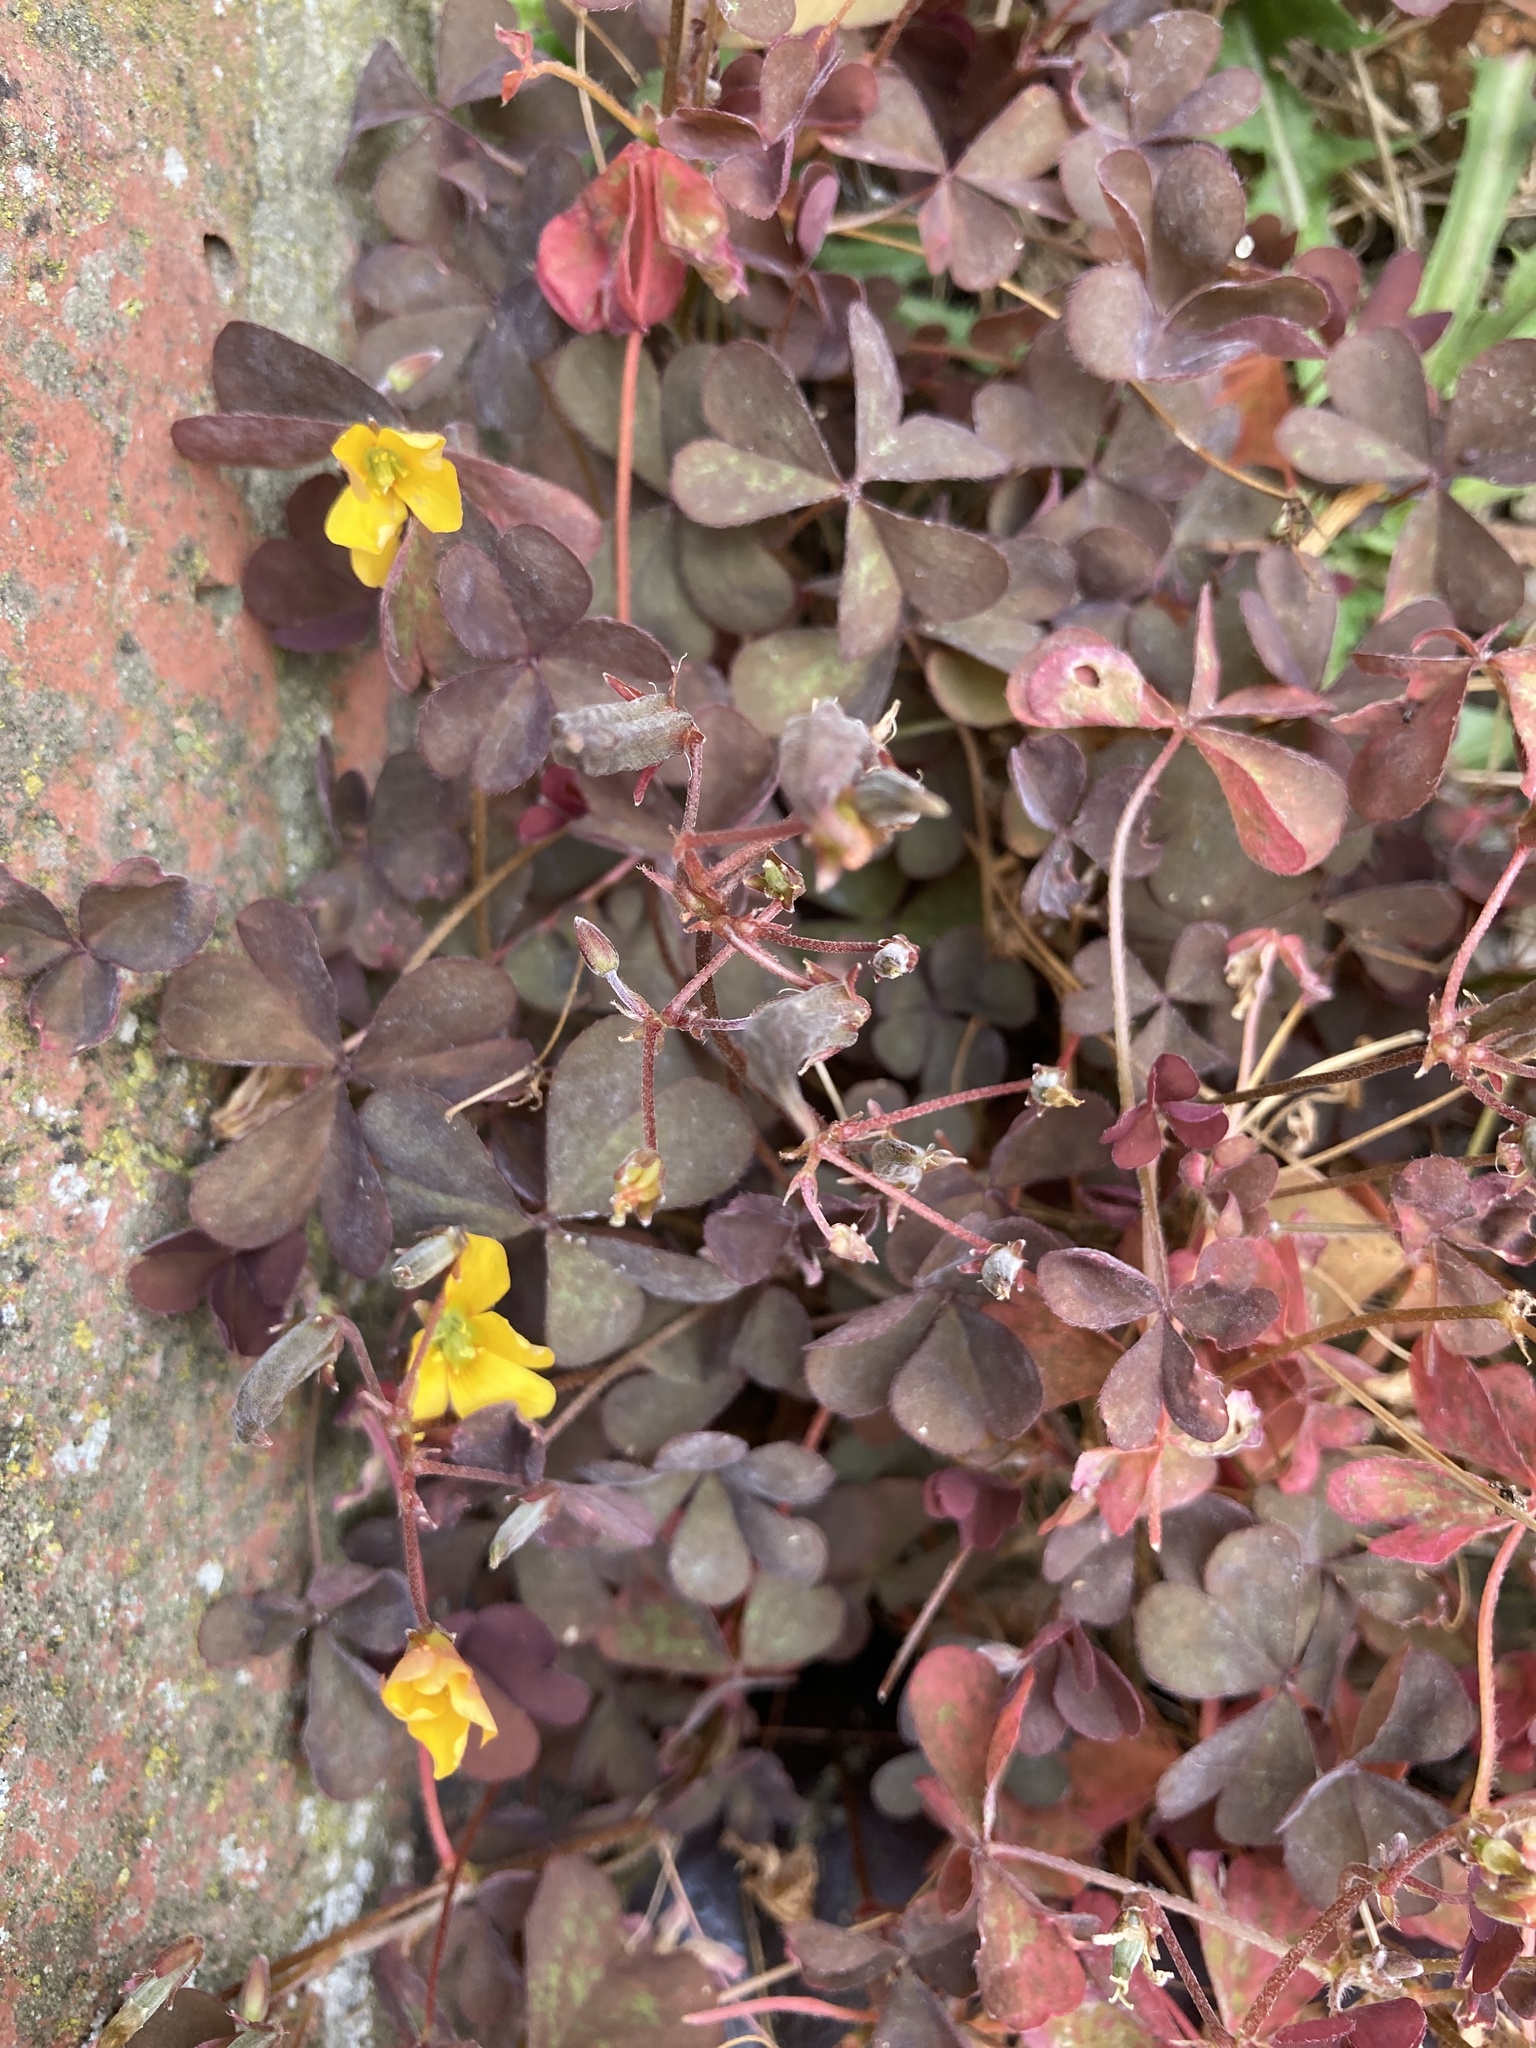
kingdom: Plantae
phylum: Tracheophyta
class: Magnoliopsida
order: Oxalidales
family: Oxalidaceae
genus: Oxalis
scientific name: Oxalis corniculata
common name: Procumbent yellow-sorrel
